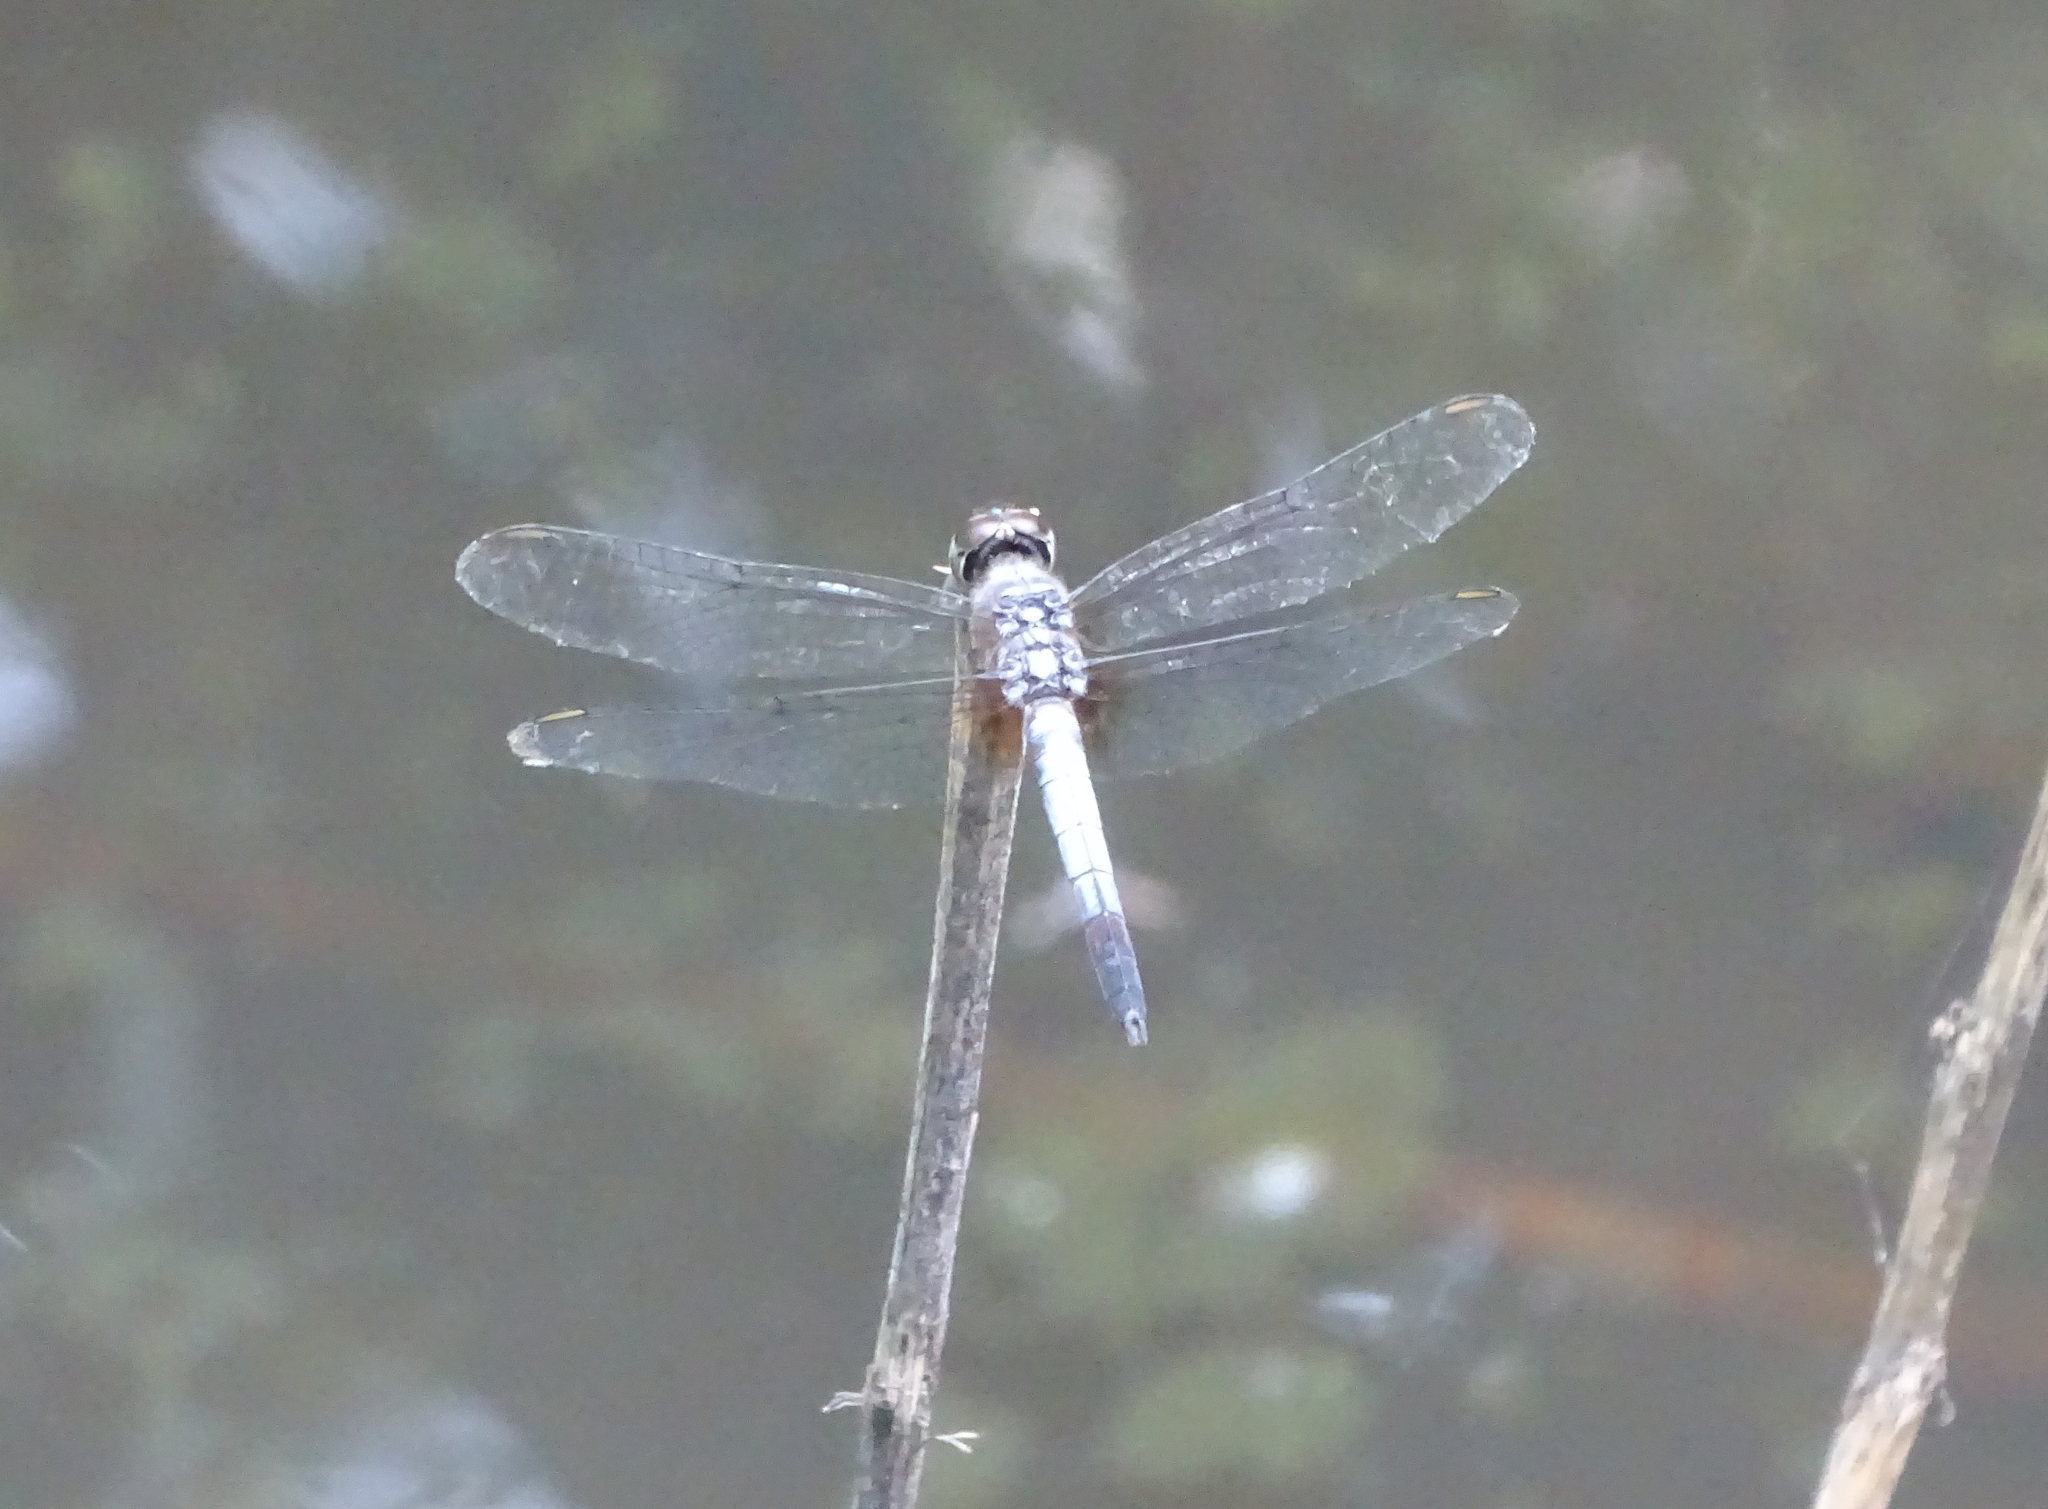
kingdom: Animalia
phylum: Arthropoda
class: Insecta
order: Odonata
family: Libellulidae
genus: Brachydiplax
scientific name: Brachydiplax chalybea
